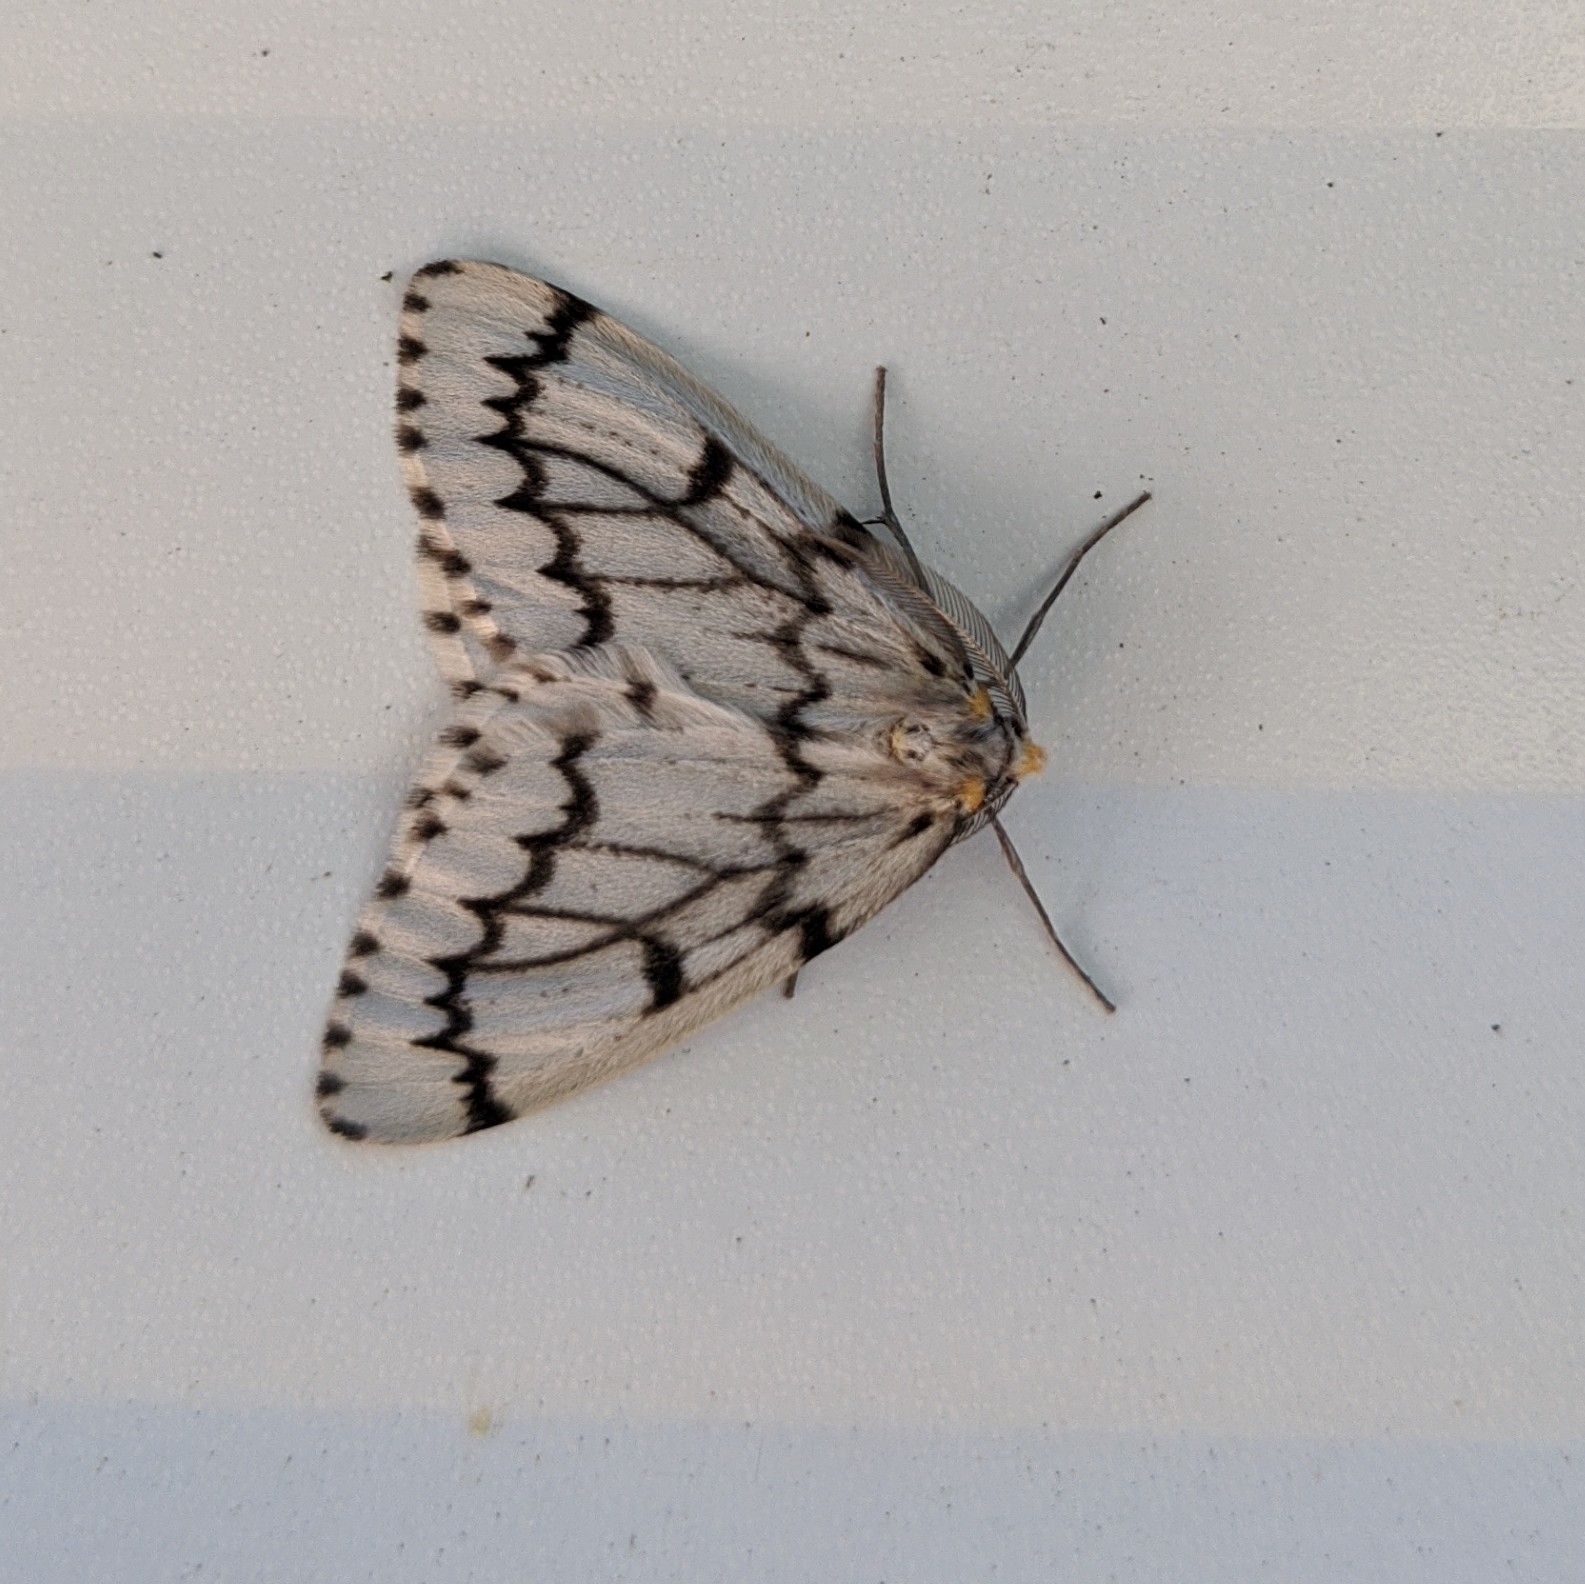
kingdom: Animalia
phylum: Arthropoda
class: Insecta
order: Lepidoptera
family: Geometridae
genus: Nepytia
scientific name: Nepytia phantasmaria
